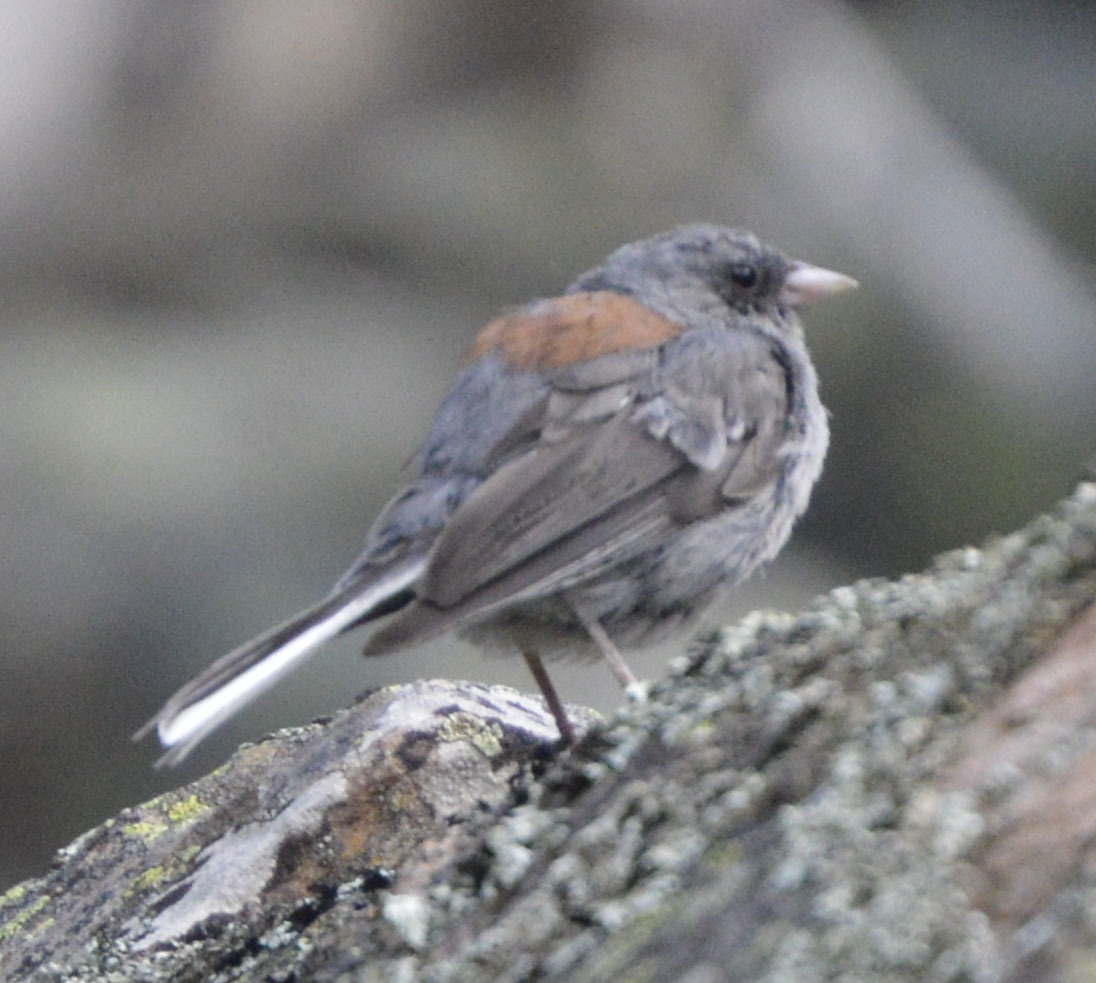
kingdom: Animalia
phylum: Chordata
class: Aves
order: Passeriformes
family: Passerellidae
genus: Junco
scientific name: Junco hyemalis
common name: Dark-eyed junco
